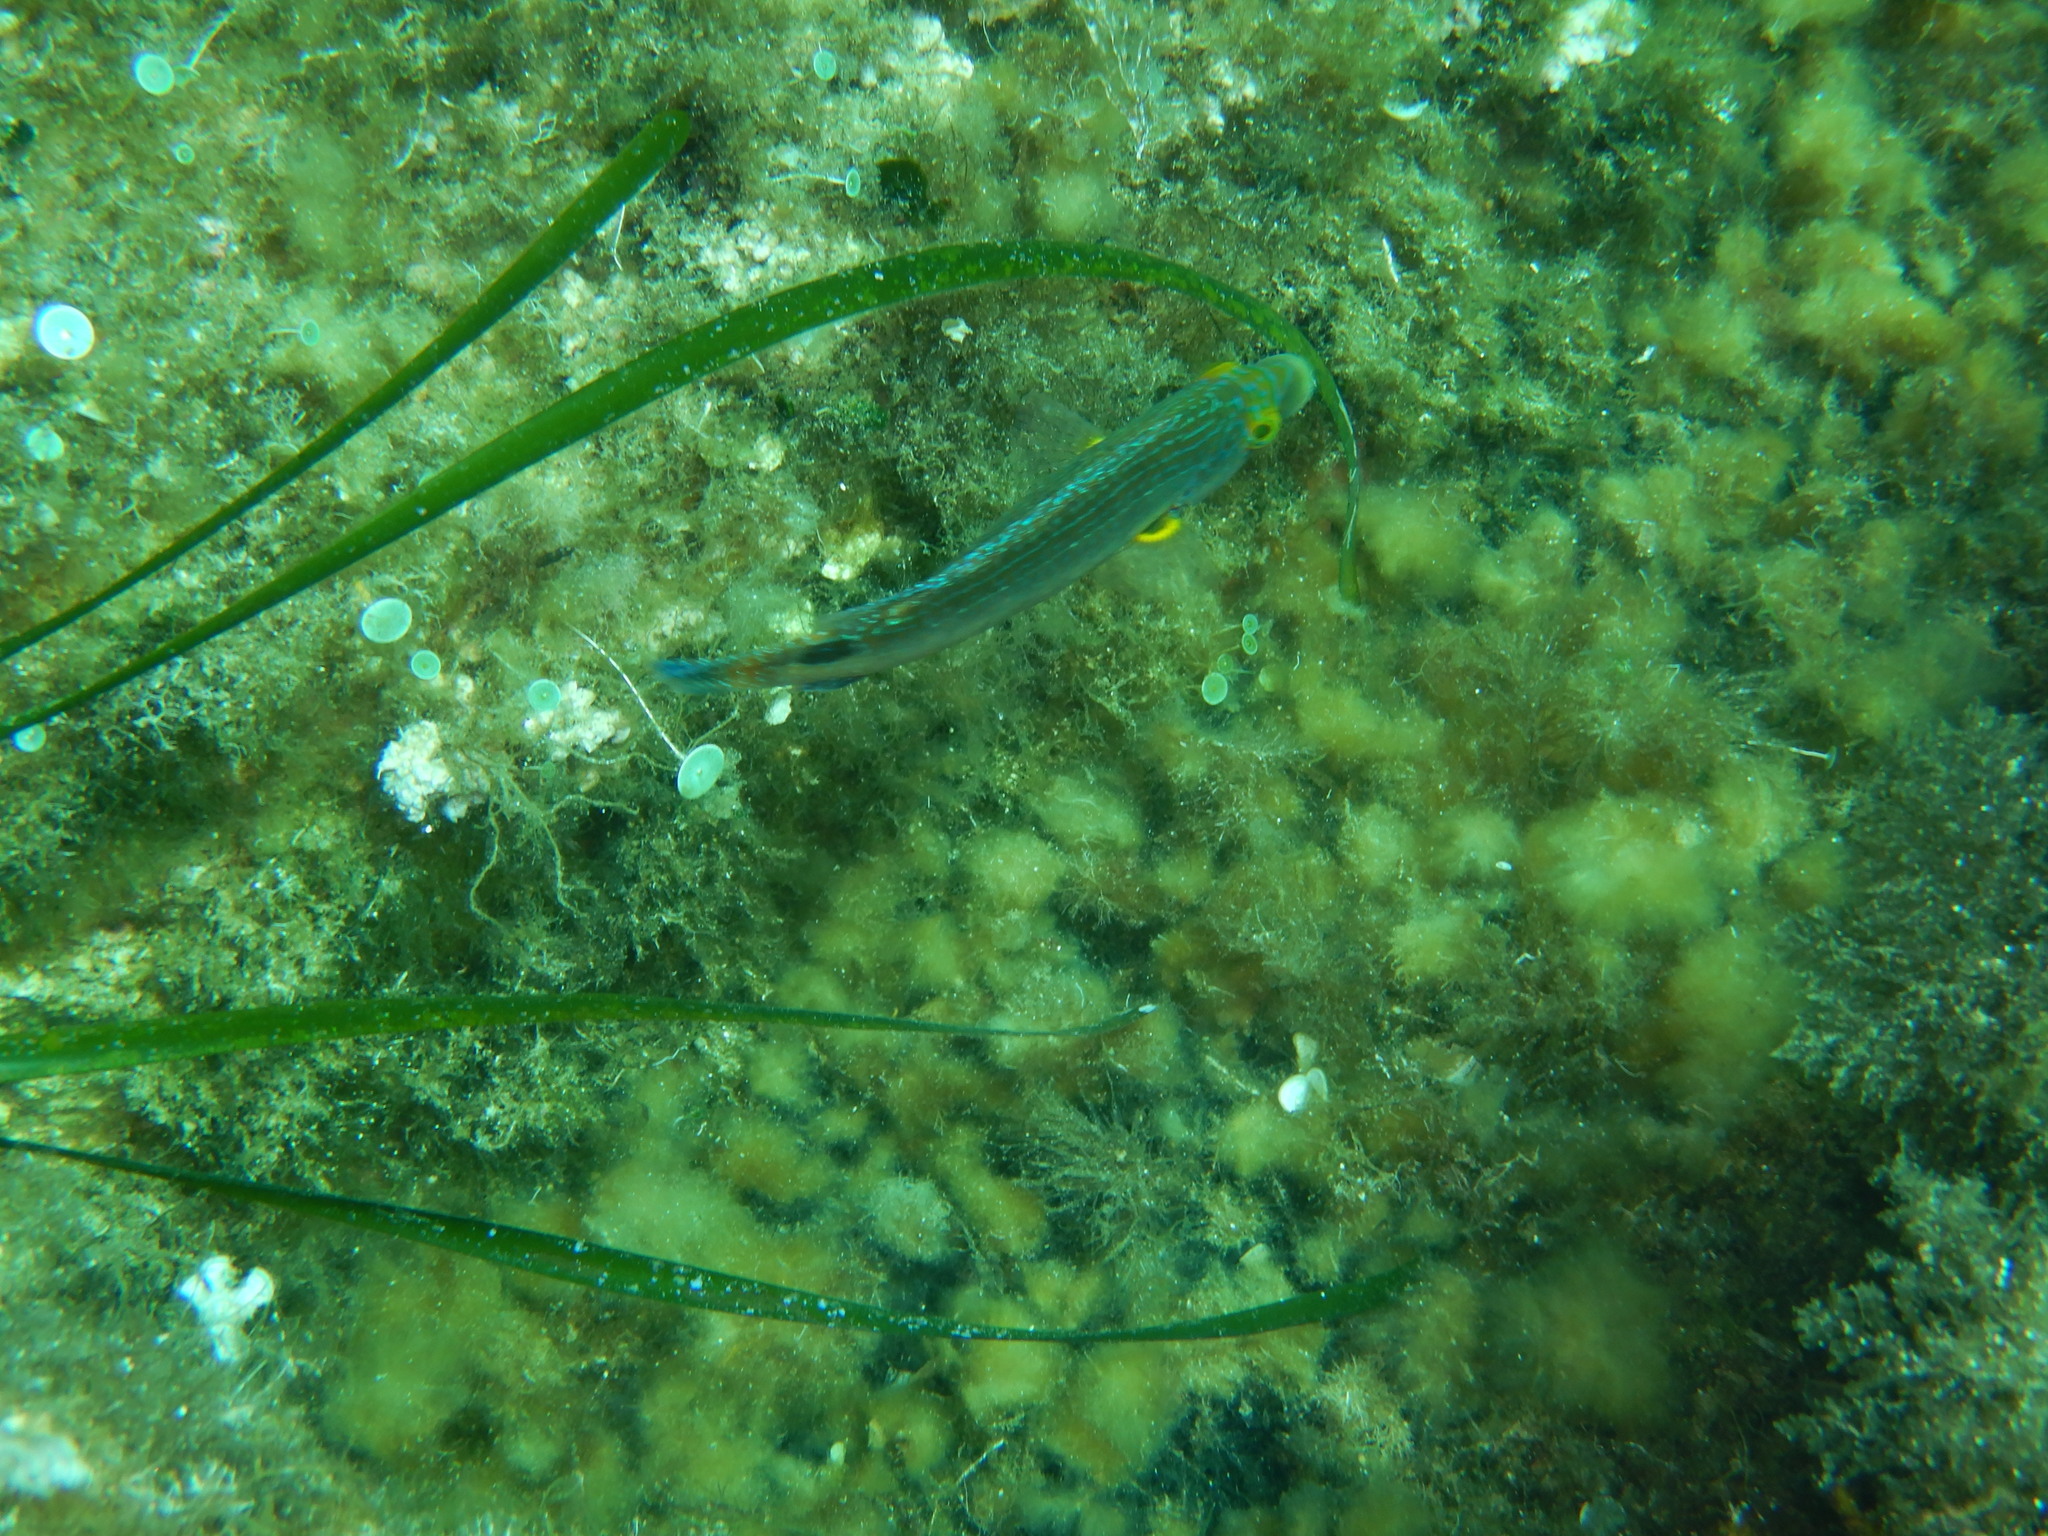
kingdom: Animalia
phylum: Chordata
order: Perciformes
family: Labridae
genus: Symphodus
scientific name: Symphodus mediterraneus
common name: Axillary wrasse
